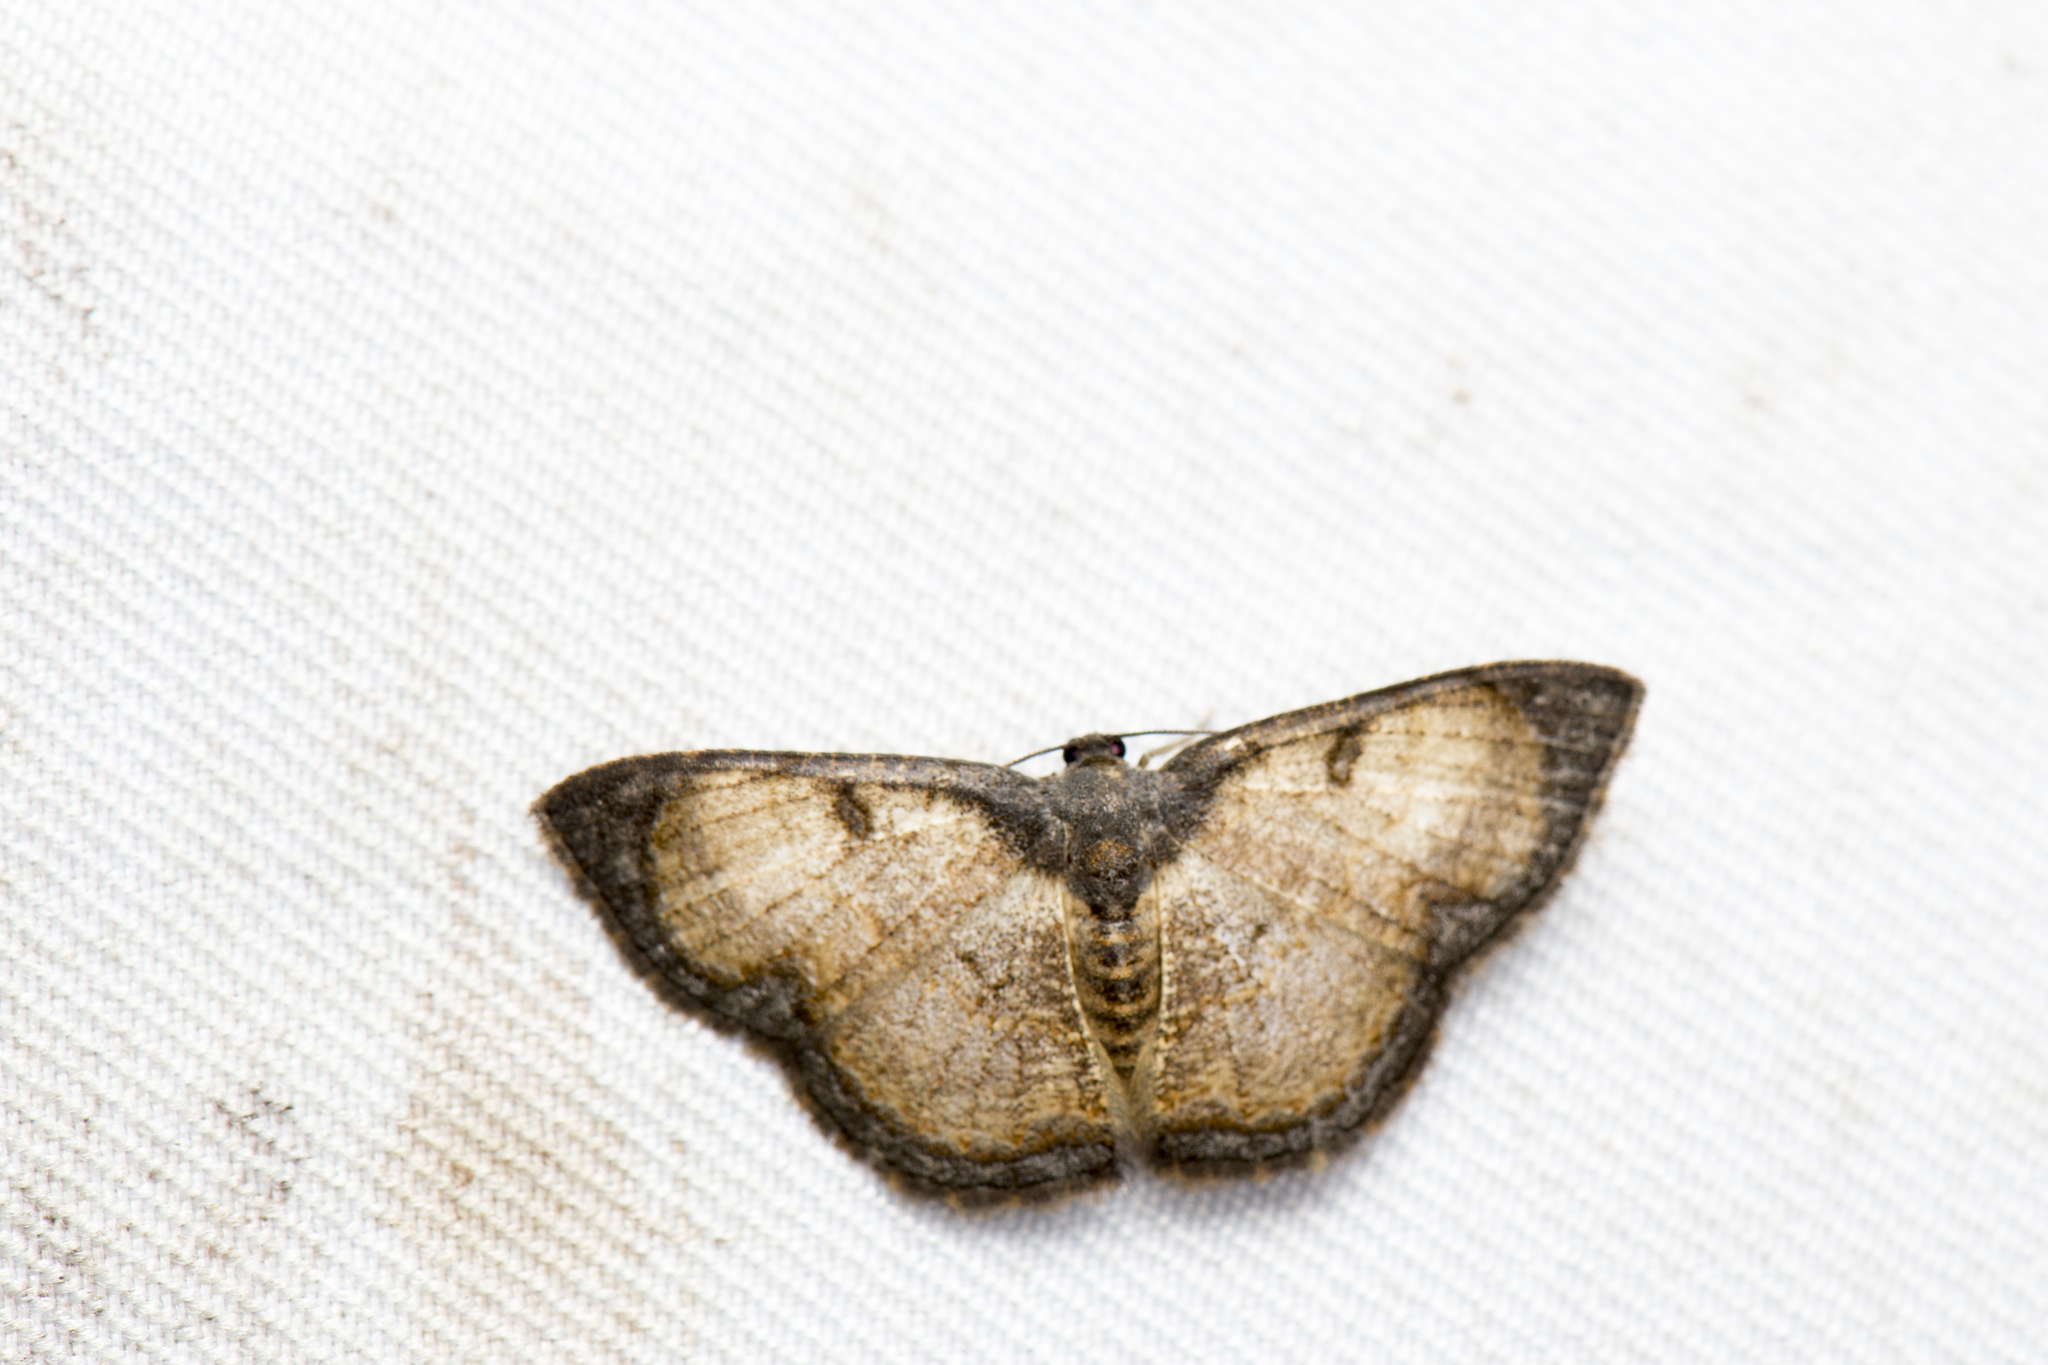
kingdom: Animalia
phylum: Arthropoda
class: Insecta
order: Lepidoptera
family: Geometridae
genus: Hydatocapnia
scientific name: Hydatocapnia gemina
